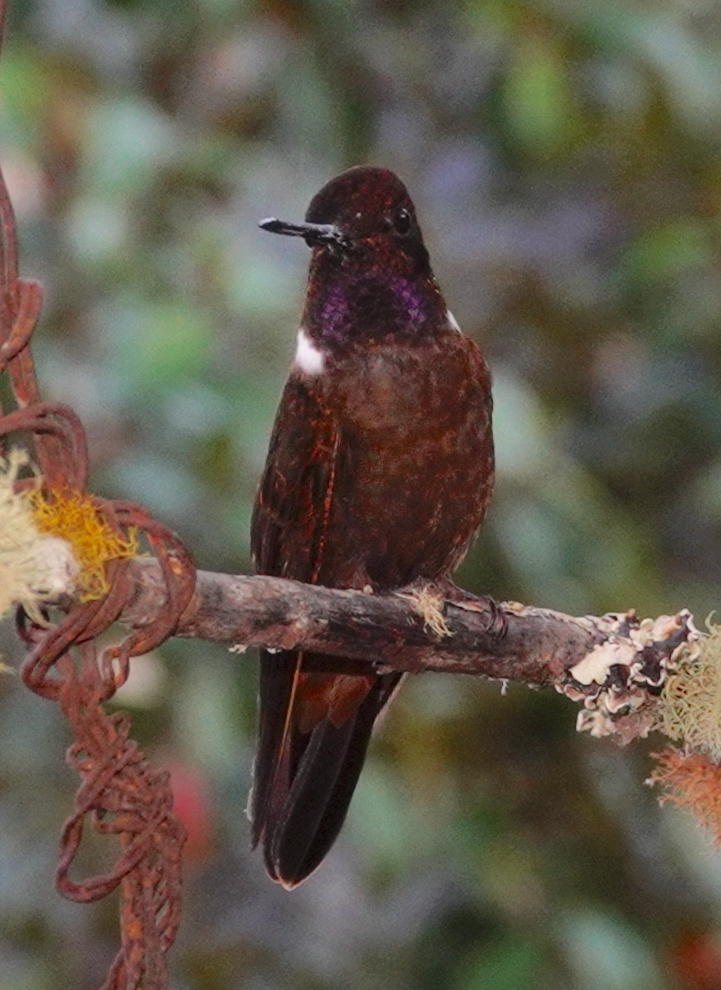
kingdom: Animalia
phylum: Chordata
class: Aves
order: Apodiformes
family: Trochilidae
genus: Coeligena
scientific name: Coeligena wilsoni
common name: Brown inca
